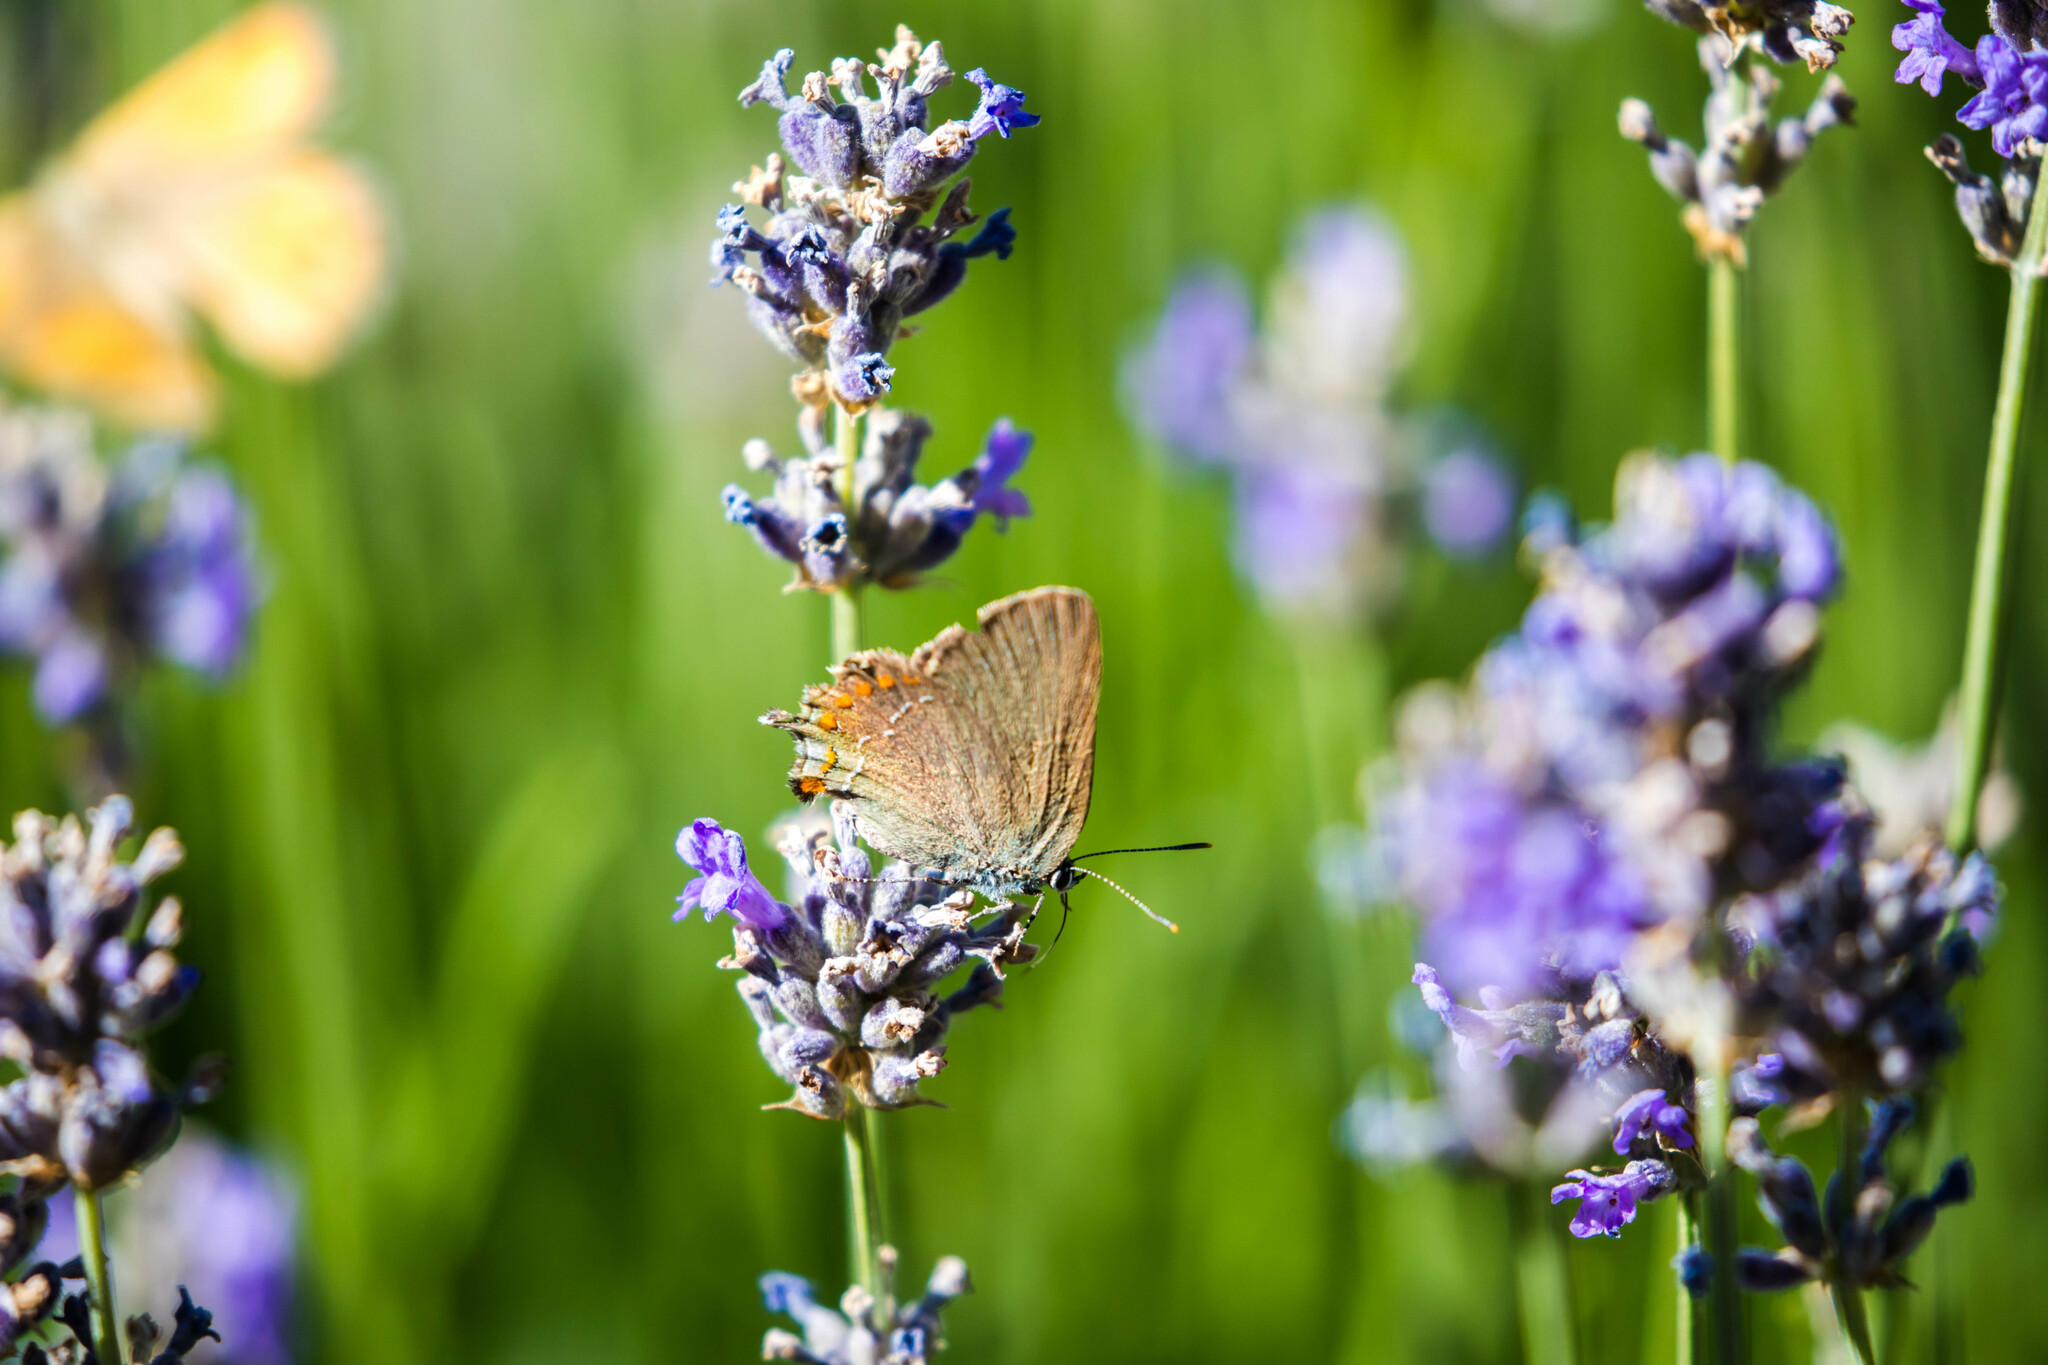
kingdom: Animalia
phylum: Arthropoda
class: Insecta
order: Lepidoptera
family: Lycaenidae
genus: Fixsenia
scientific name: Fixsenia esculi
